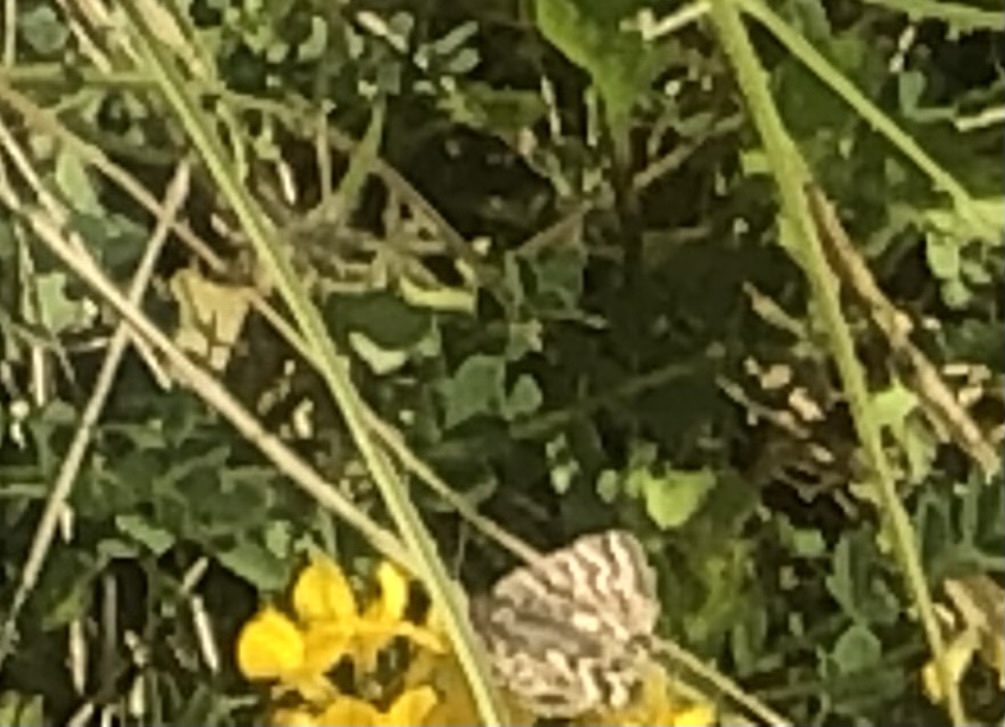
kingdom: Animalia
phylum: Arthropoda
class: Insecta
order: Lepidoptera
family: Erebidae
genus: Callistege
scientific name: Callistege mi
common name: Mother shipton
